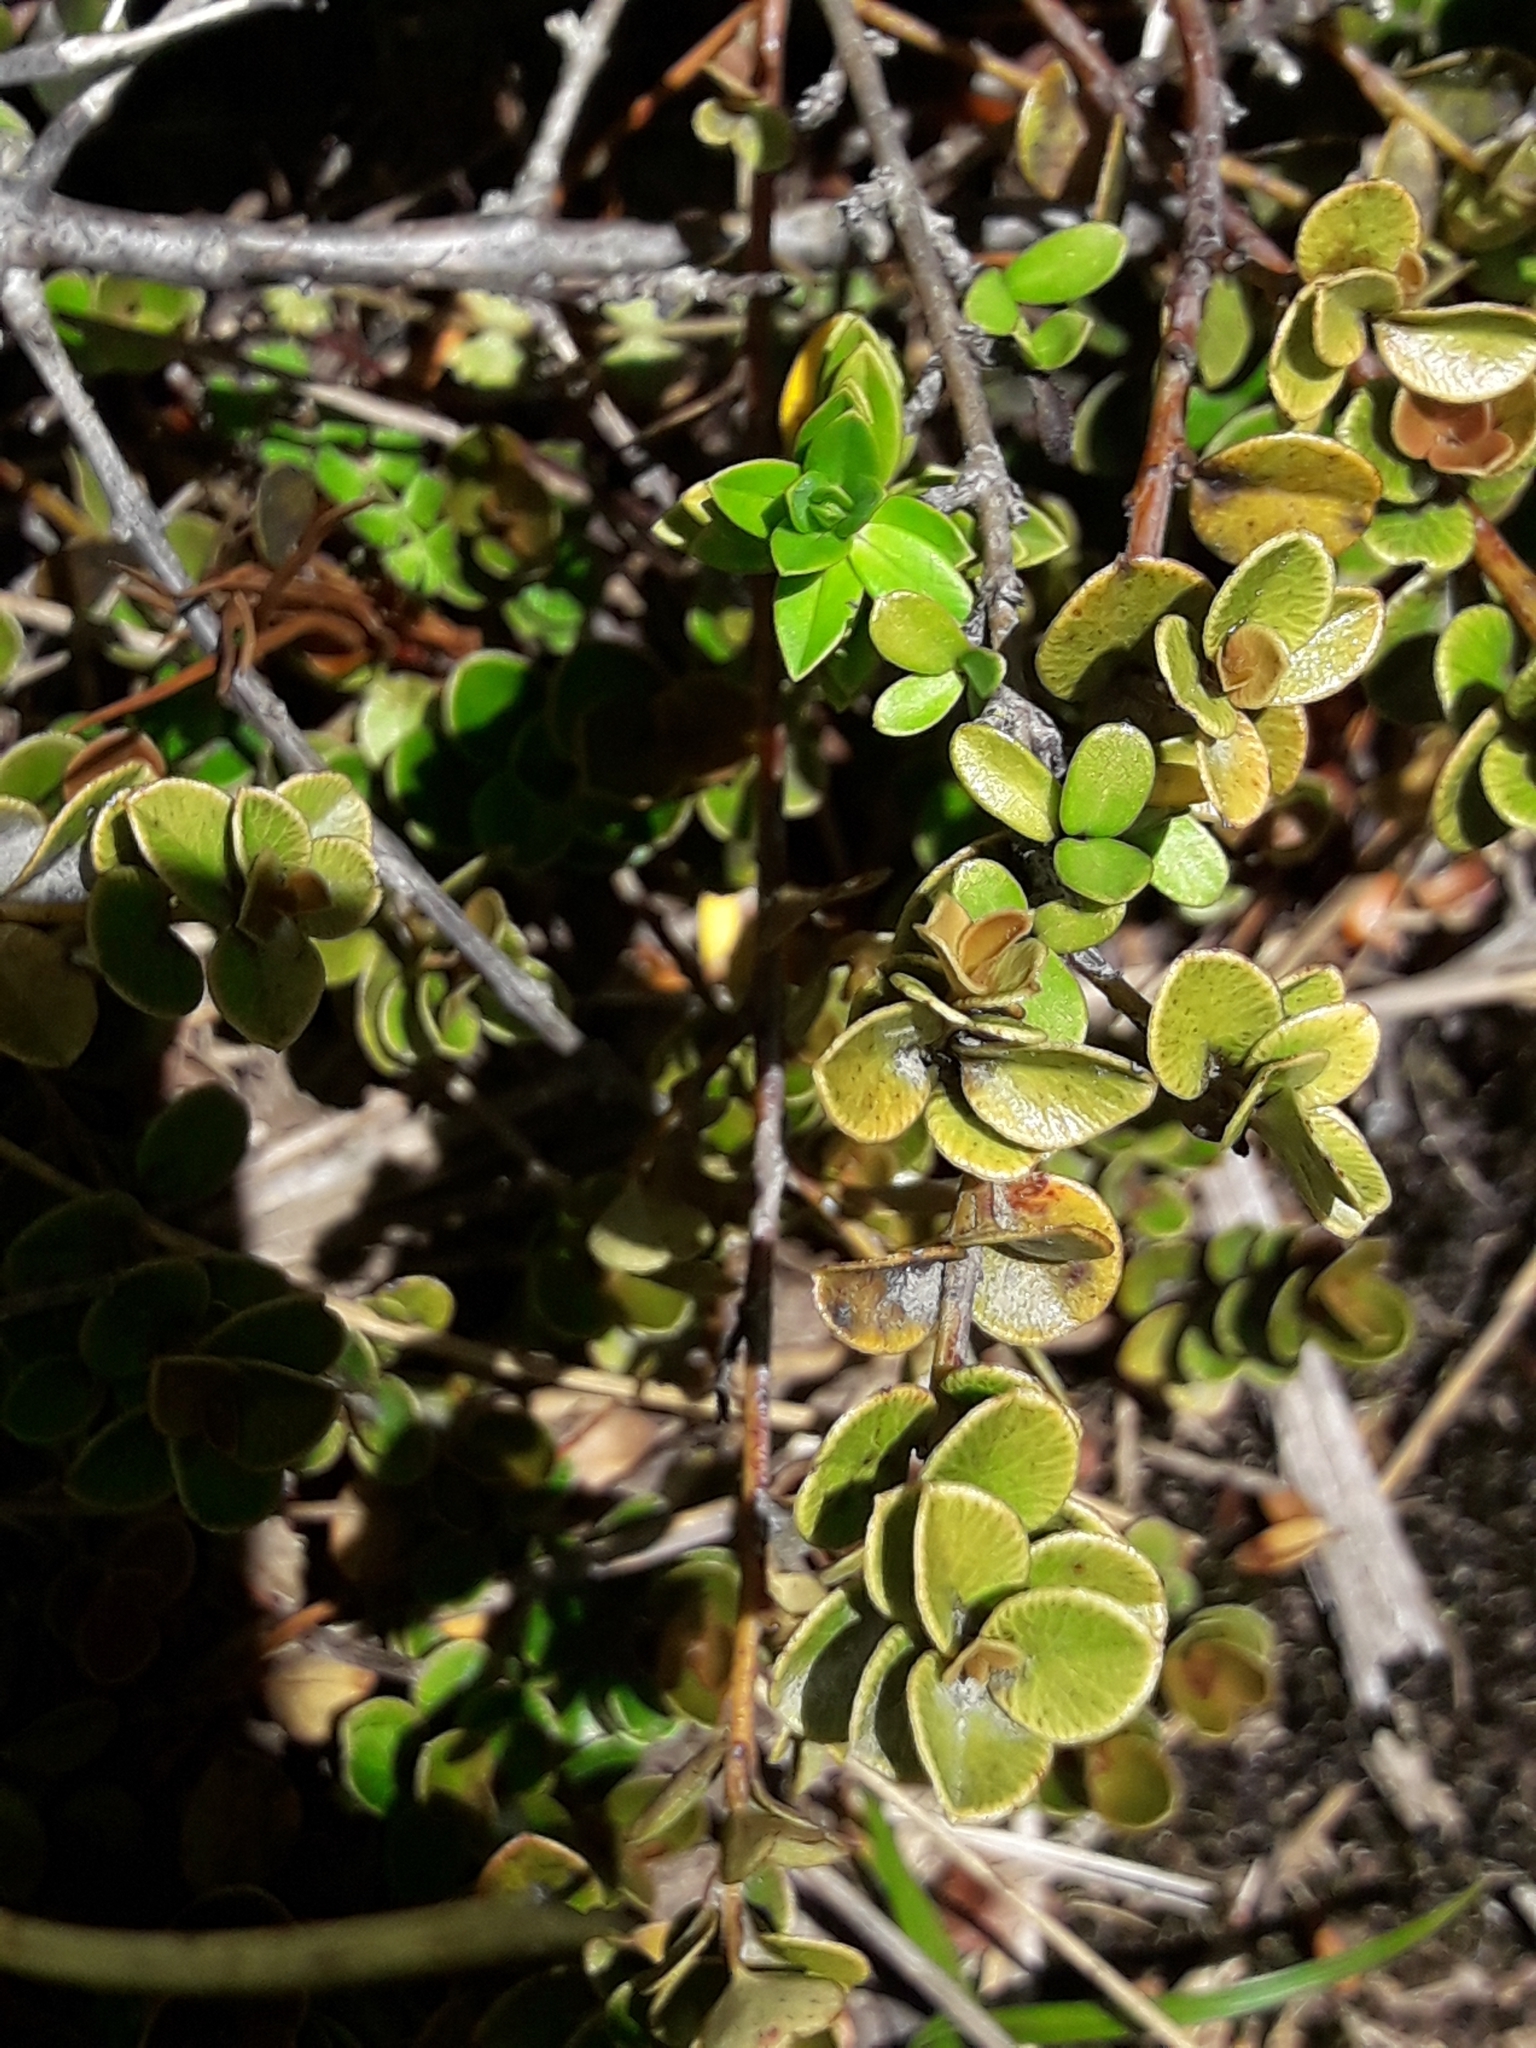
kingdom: Plantae
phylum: Tracheophyta
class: Magnoliopsida
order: Ericales
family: Primulaceae
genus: Myrsine
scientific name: Myrsine nummularia
